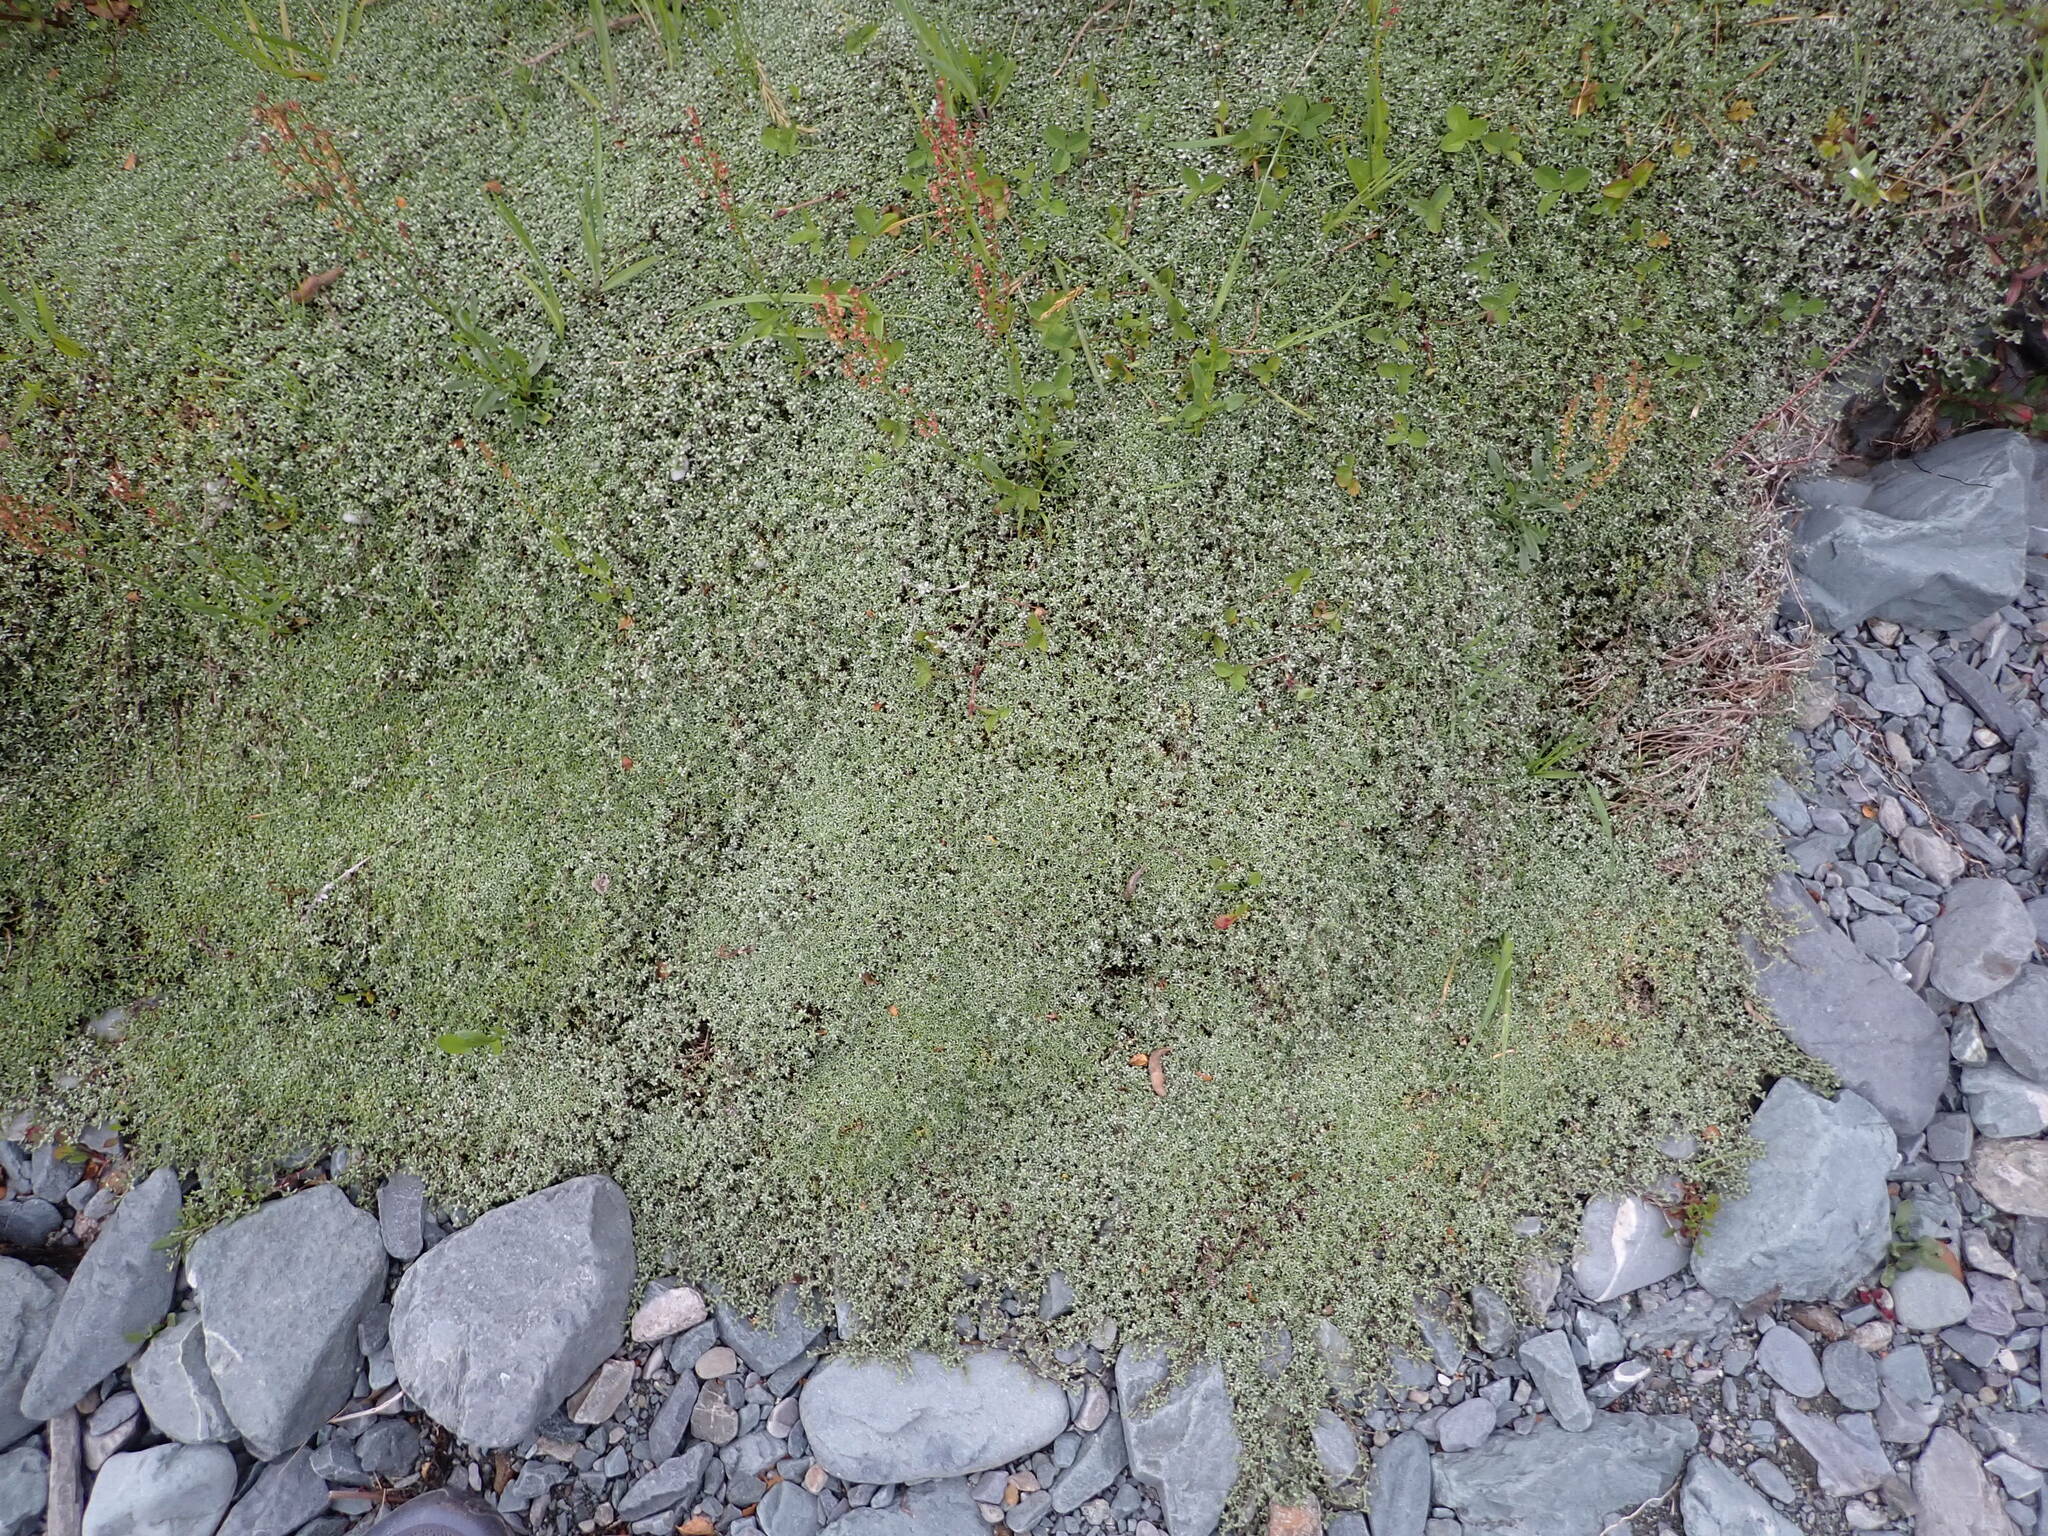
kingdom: Plantae
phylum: Tracheophyta
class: Magnoliopsida
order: Asterales
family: Asteraceae
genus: Raoulia
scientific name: Raoulia tenuicaulis
